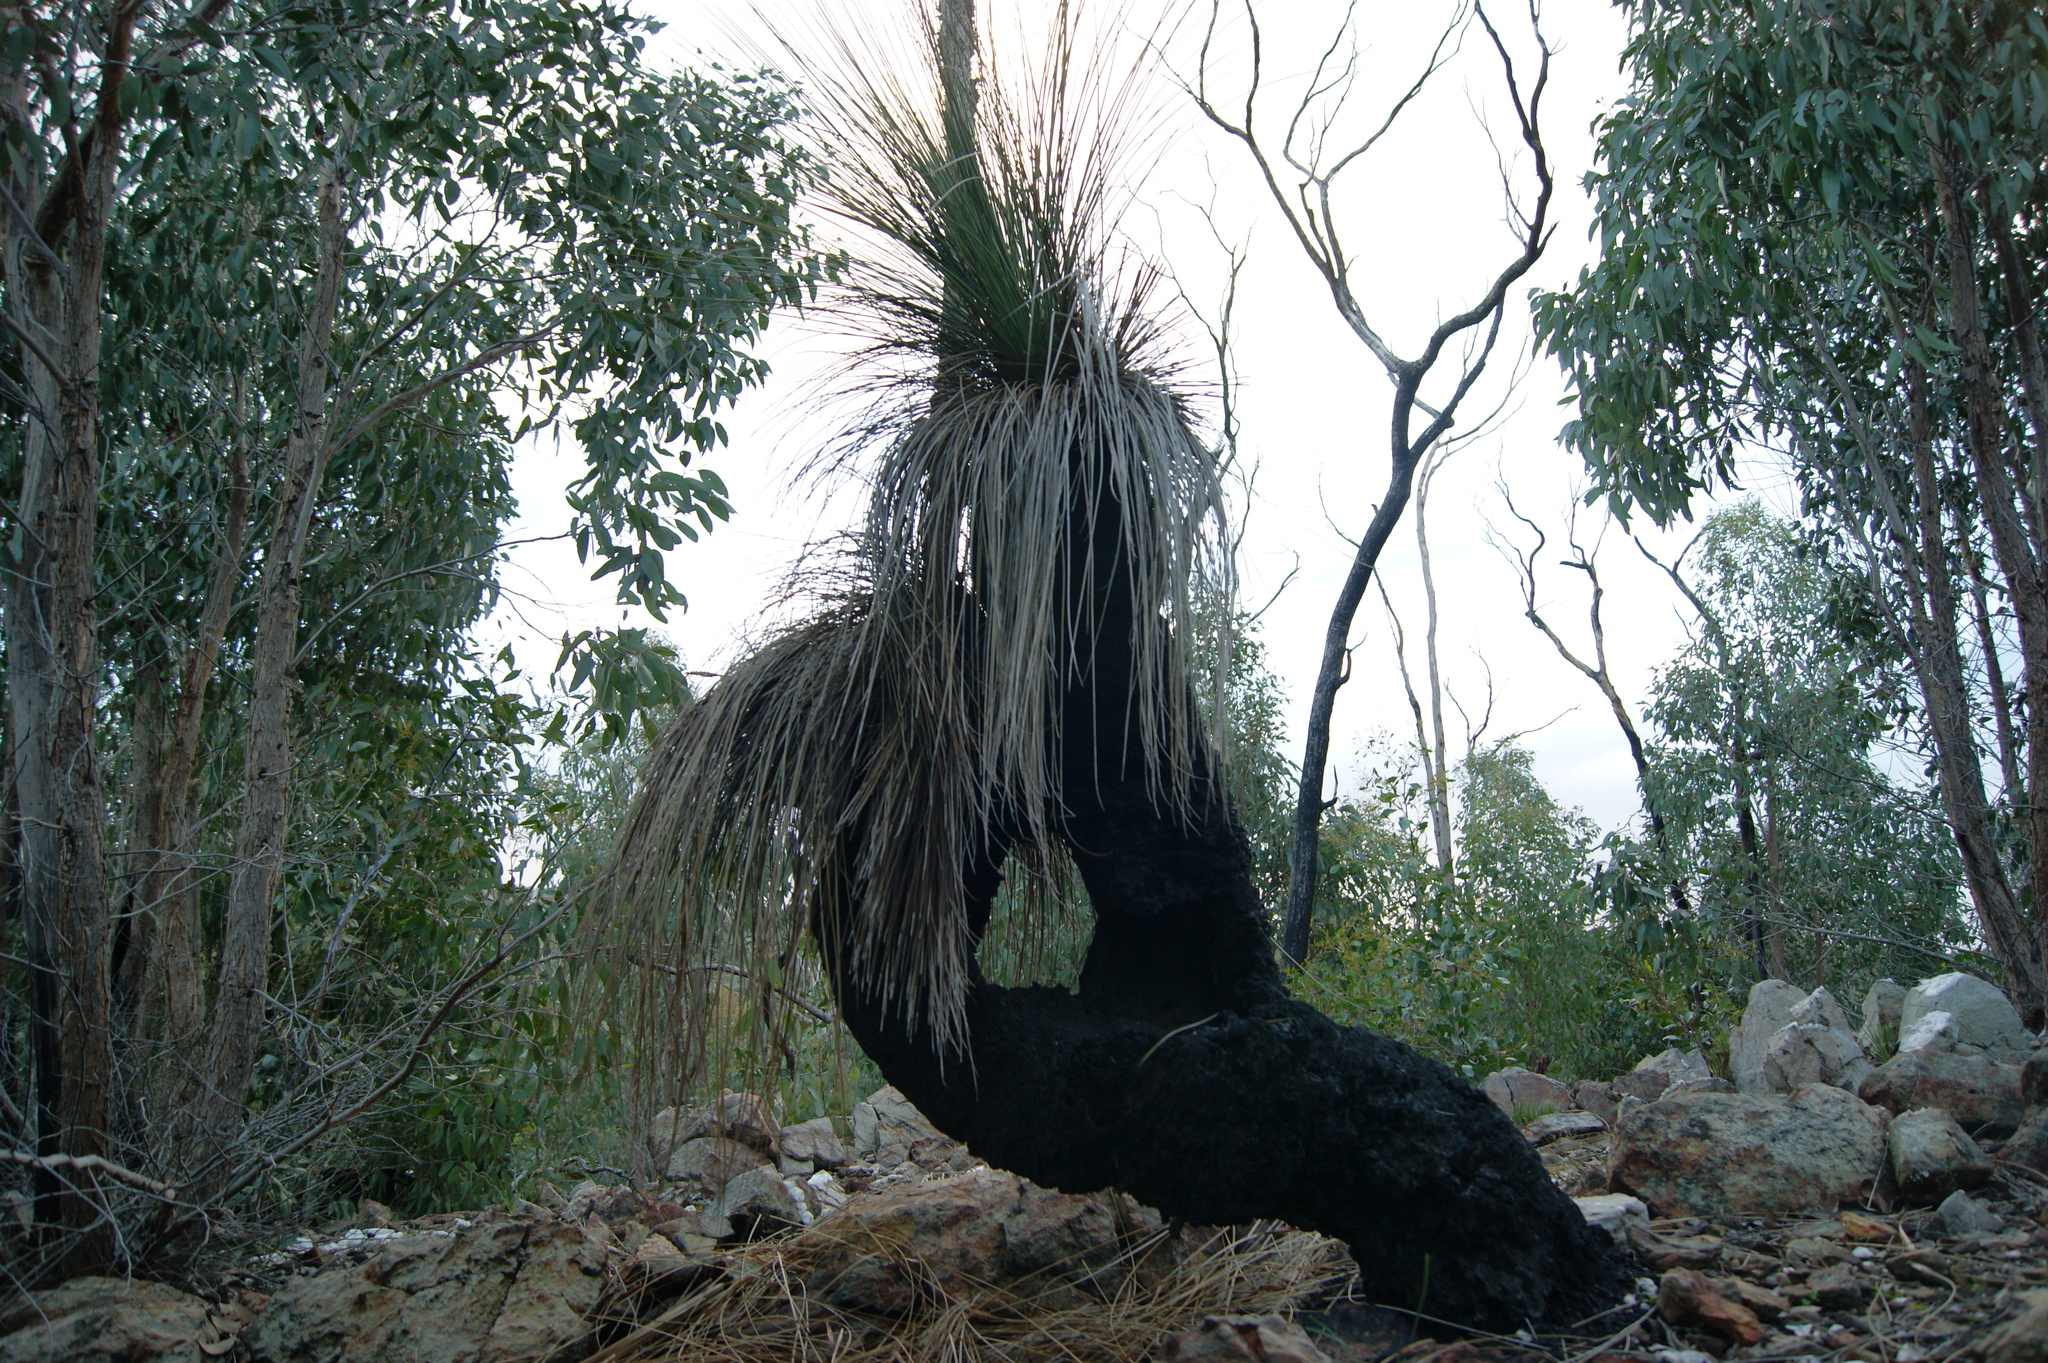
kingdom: Plantae
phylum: Tracheophyta
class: Liliopsida
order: Asparagales
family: Asphodelaceae
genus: Xanthorrhoea
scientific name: Xanthorrhoea australis
